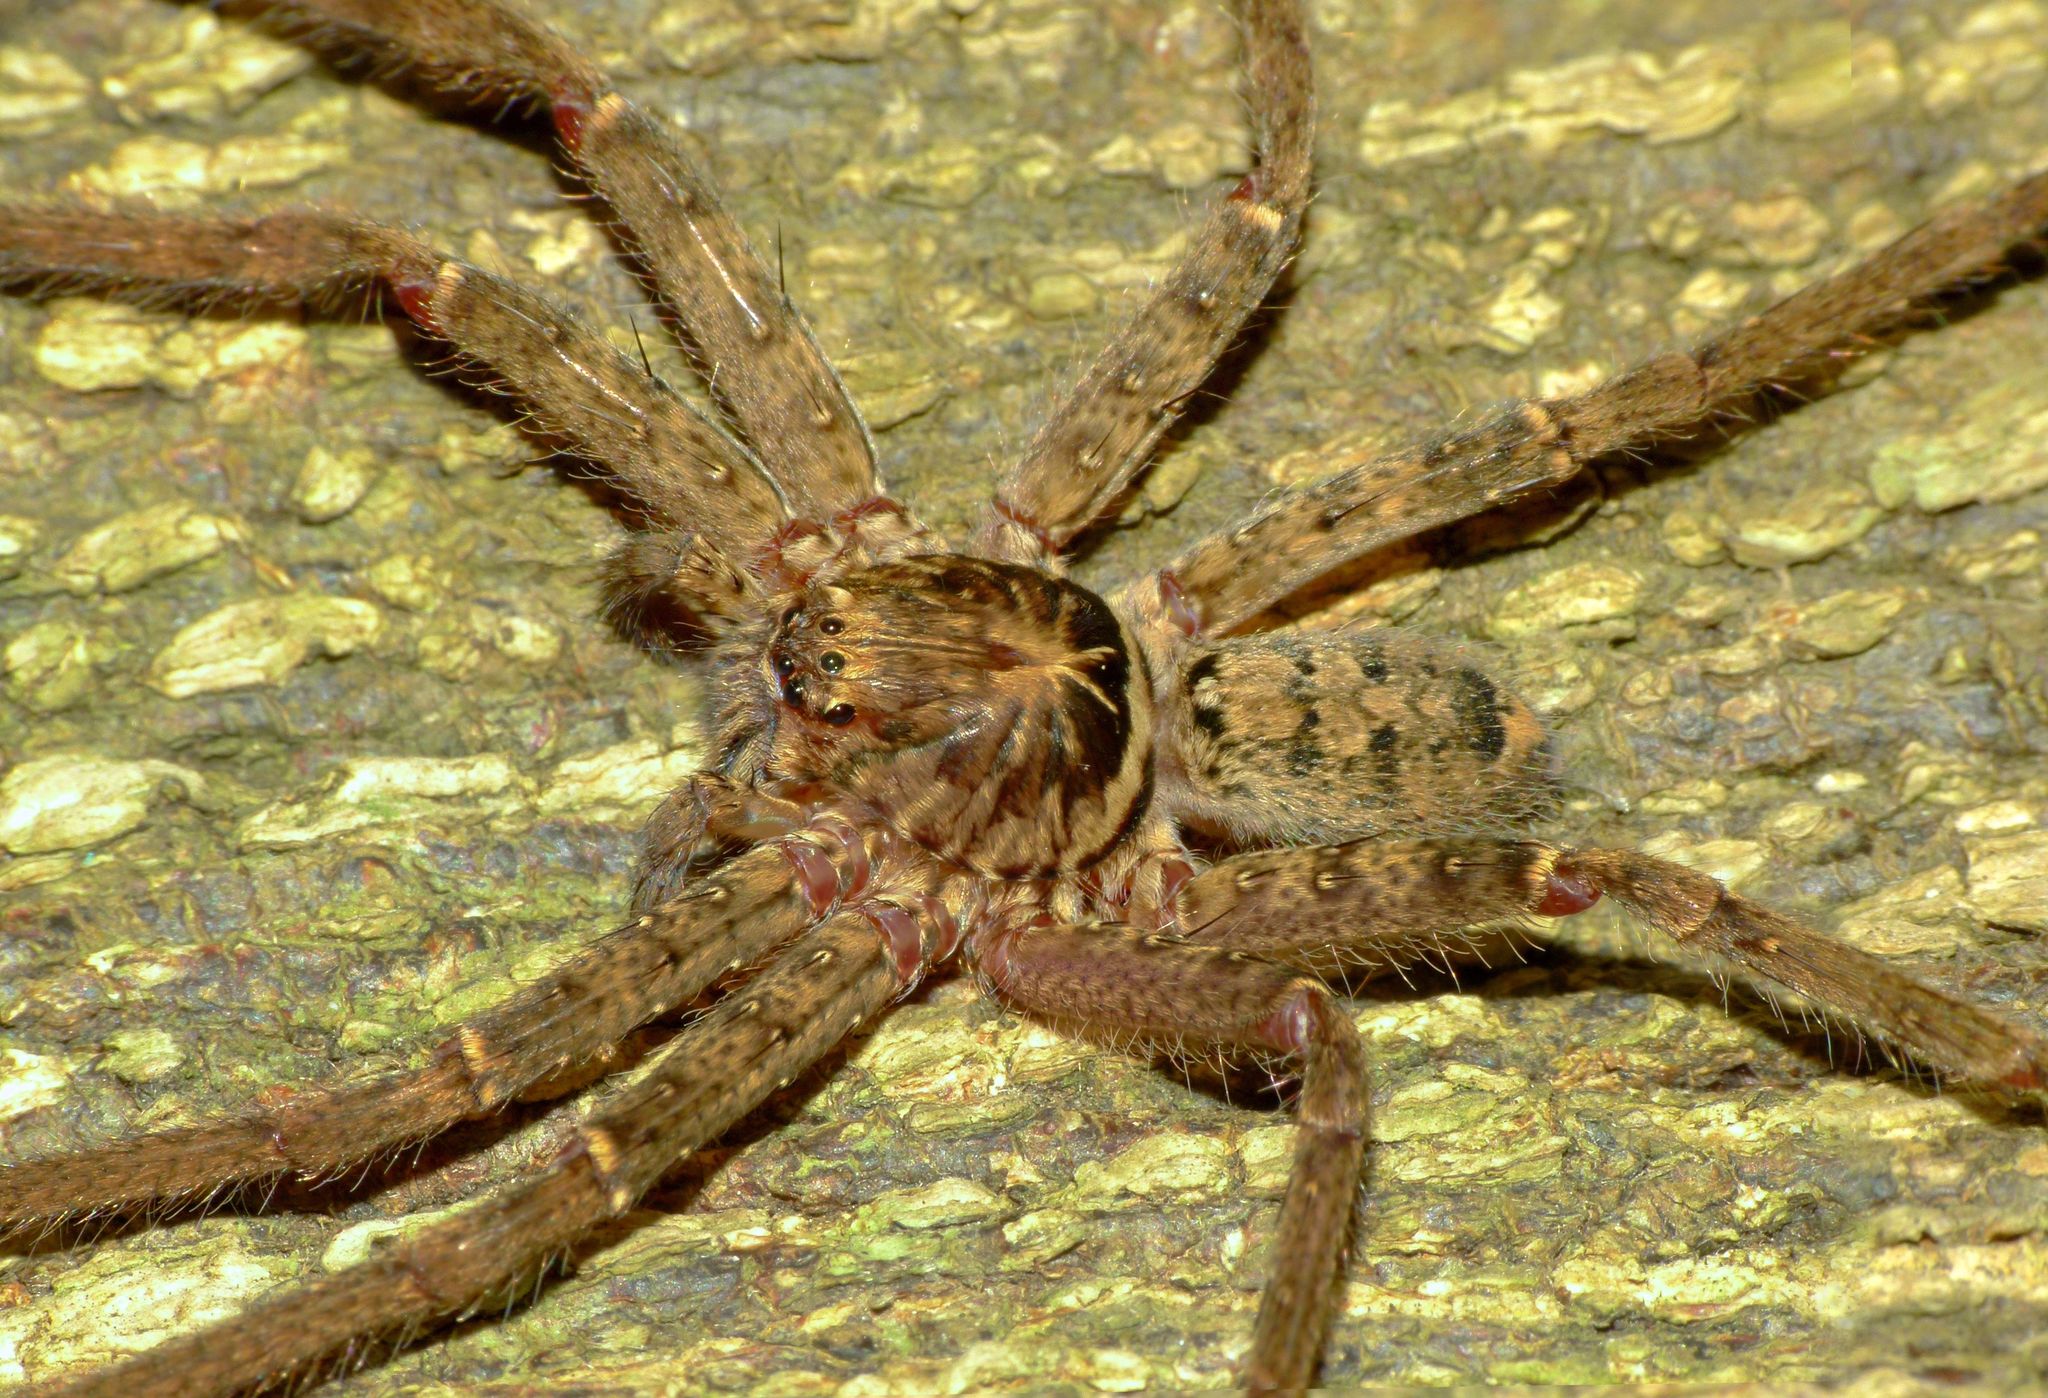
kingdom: Animalia
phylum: Arthropoda
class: Arachnida
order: Araneae
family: Sparassidae
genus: Heteropoda
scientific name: Heteropoda
